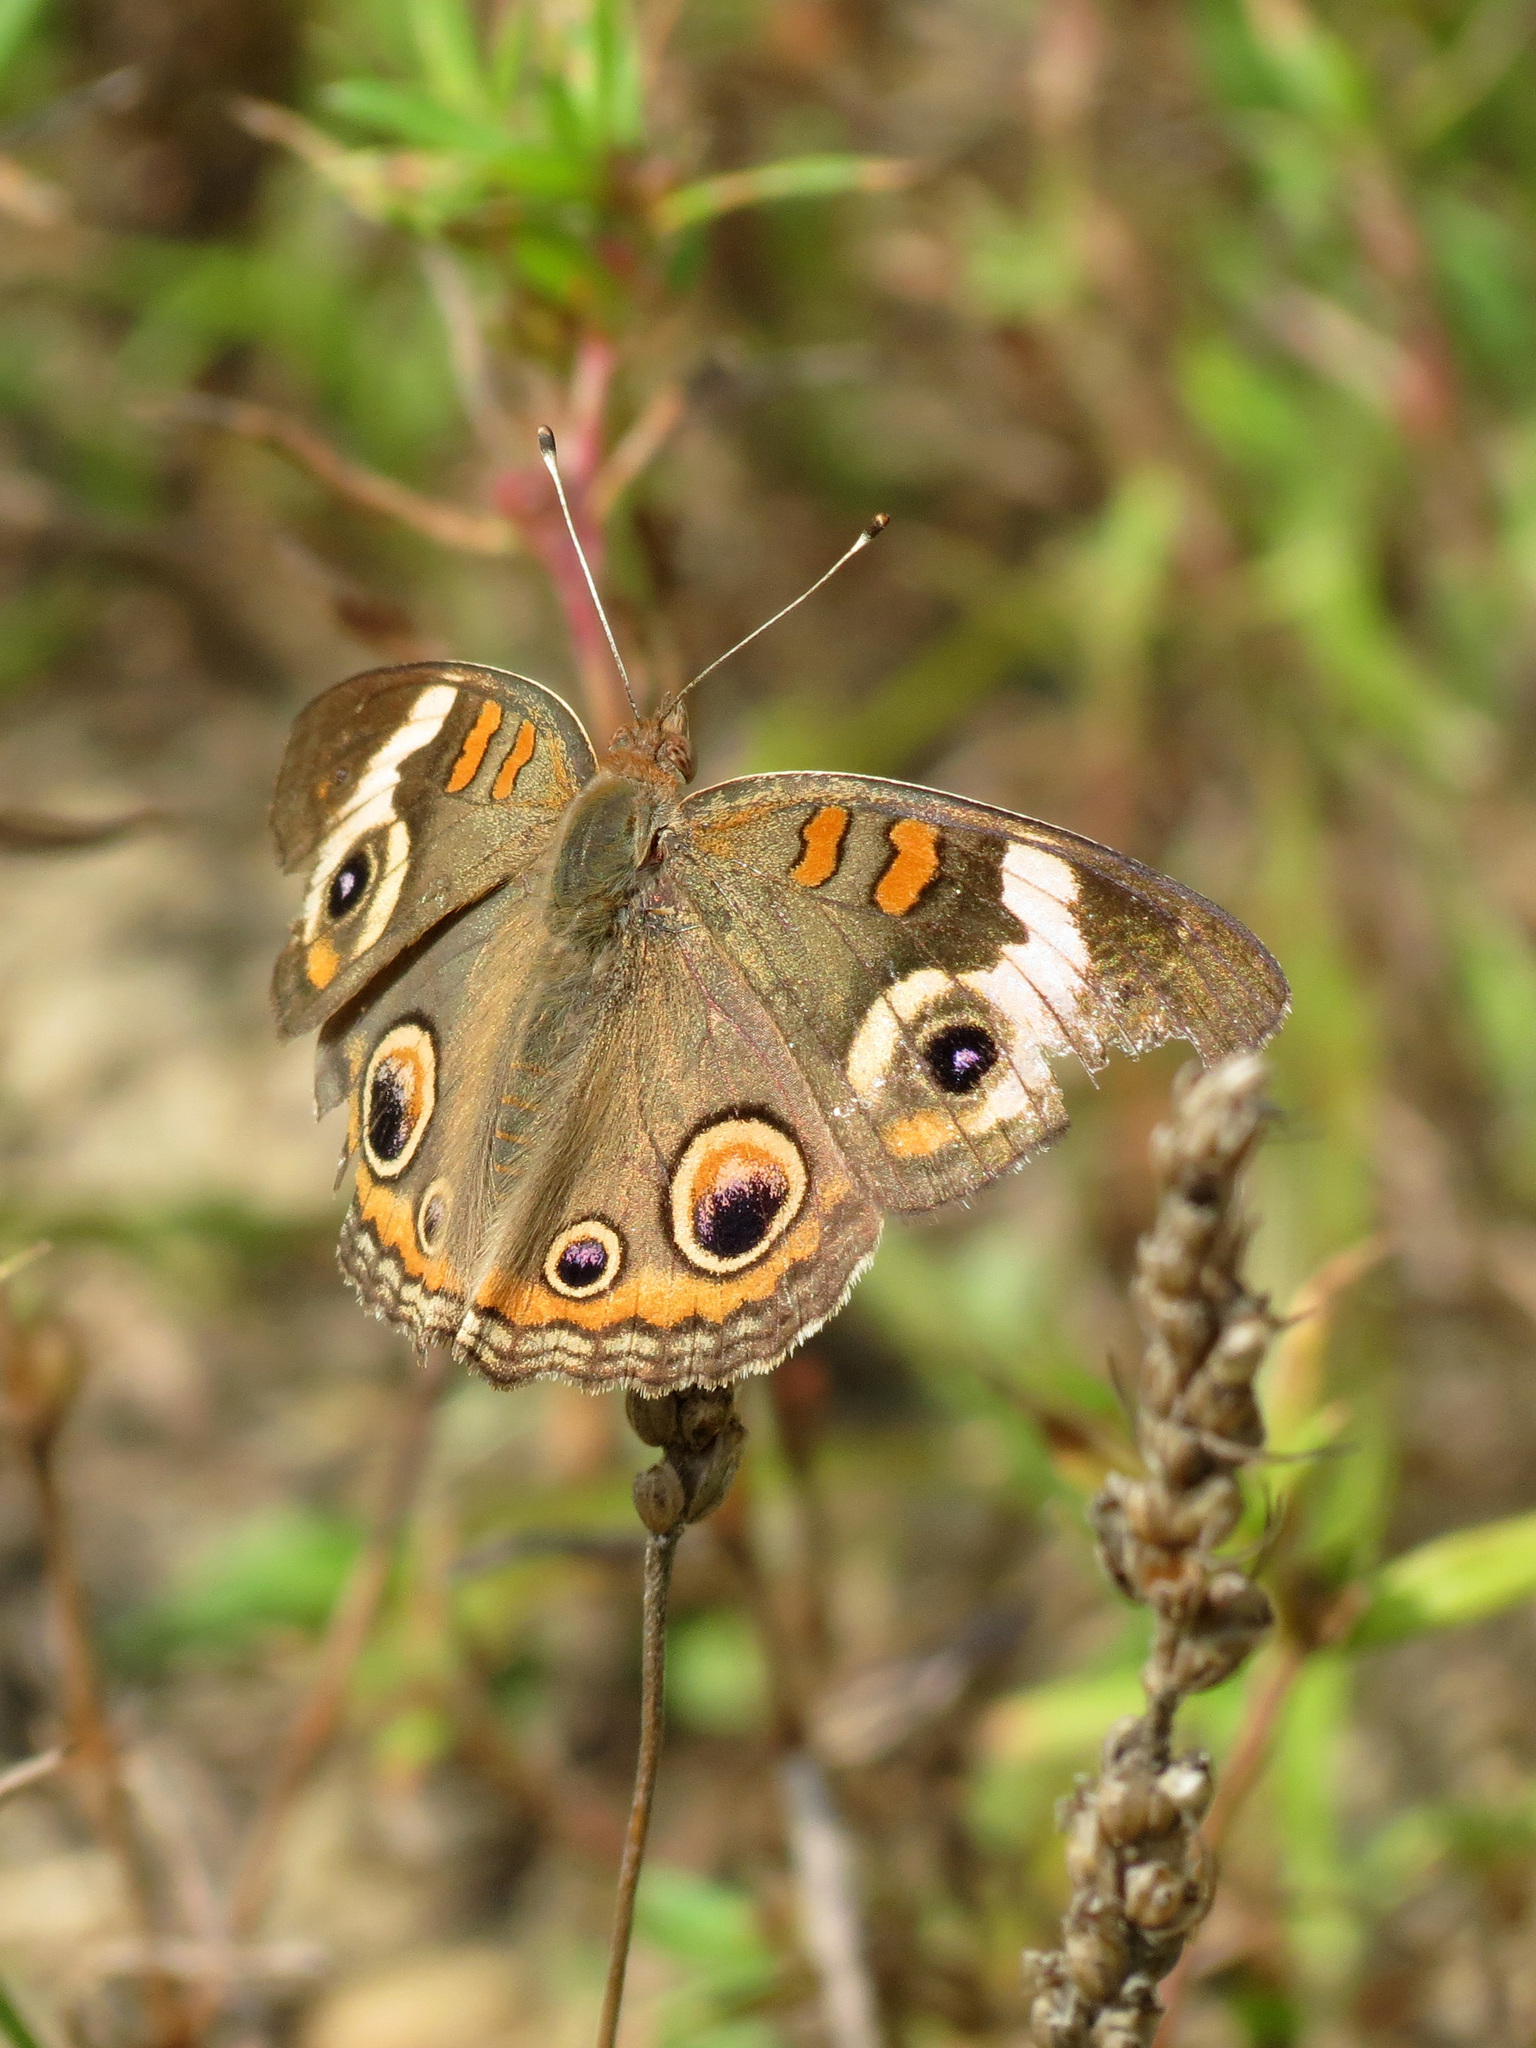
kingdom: Animalia
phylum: Arthropoda
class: Insecta
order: Lepidoptera
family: Nymphalidae
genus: Junonia
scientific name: Junonia coenia
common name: Common buckeye
